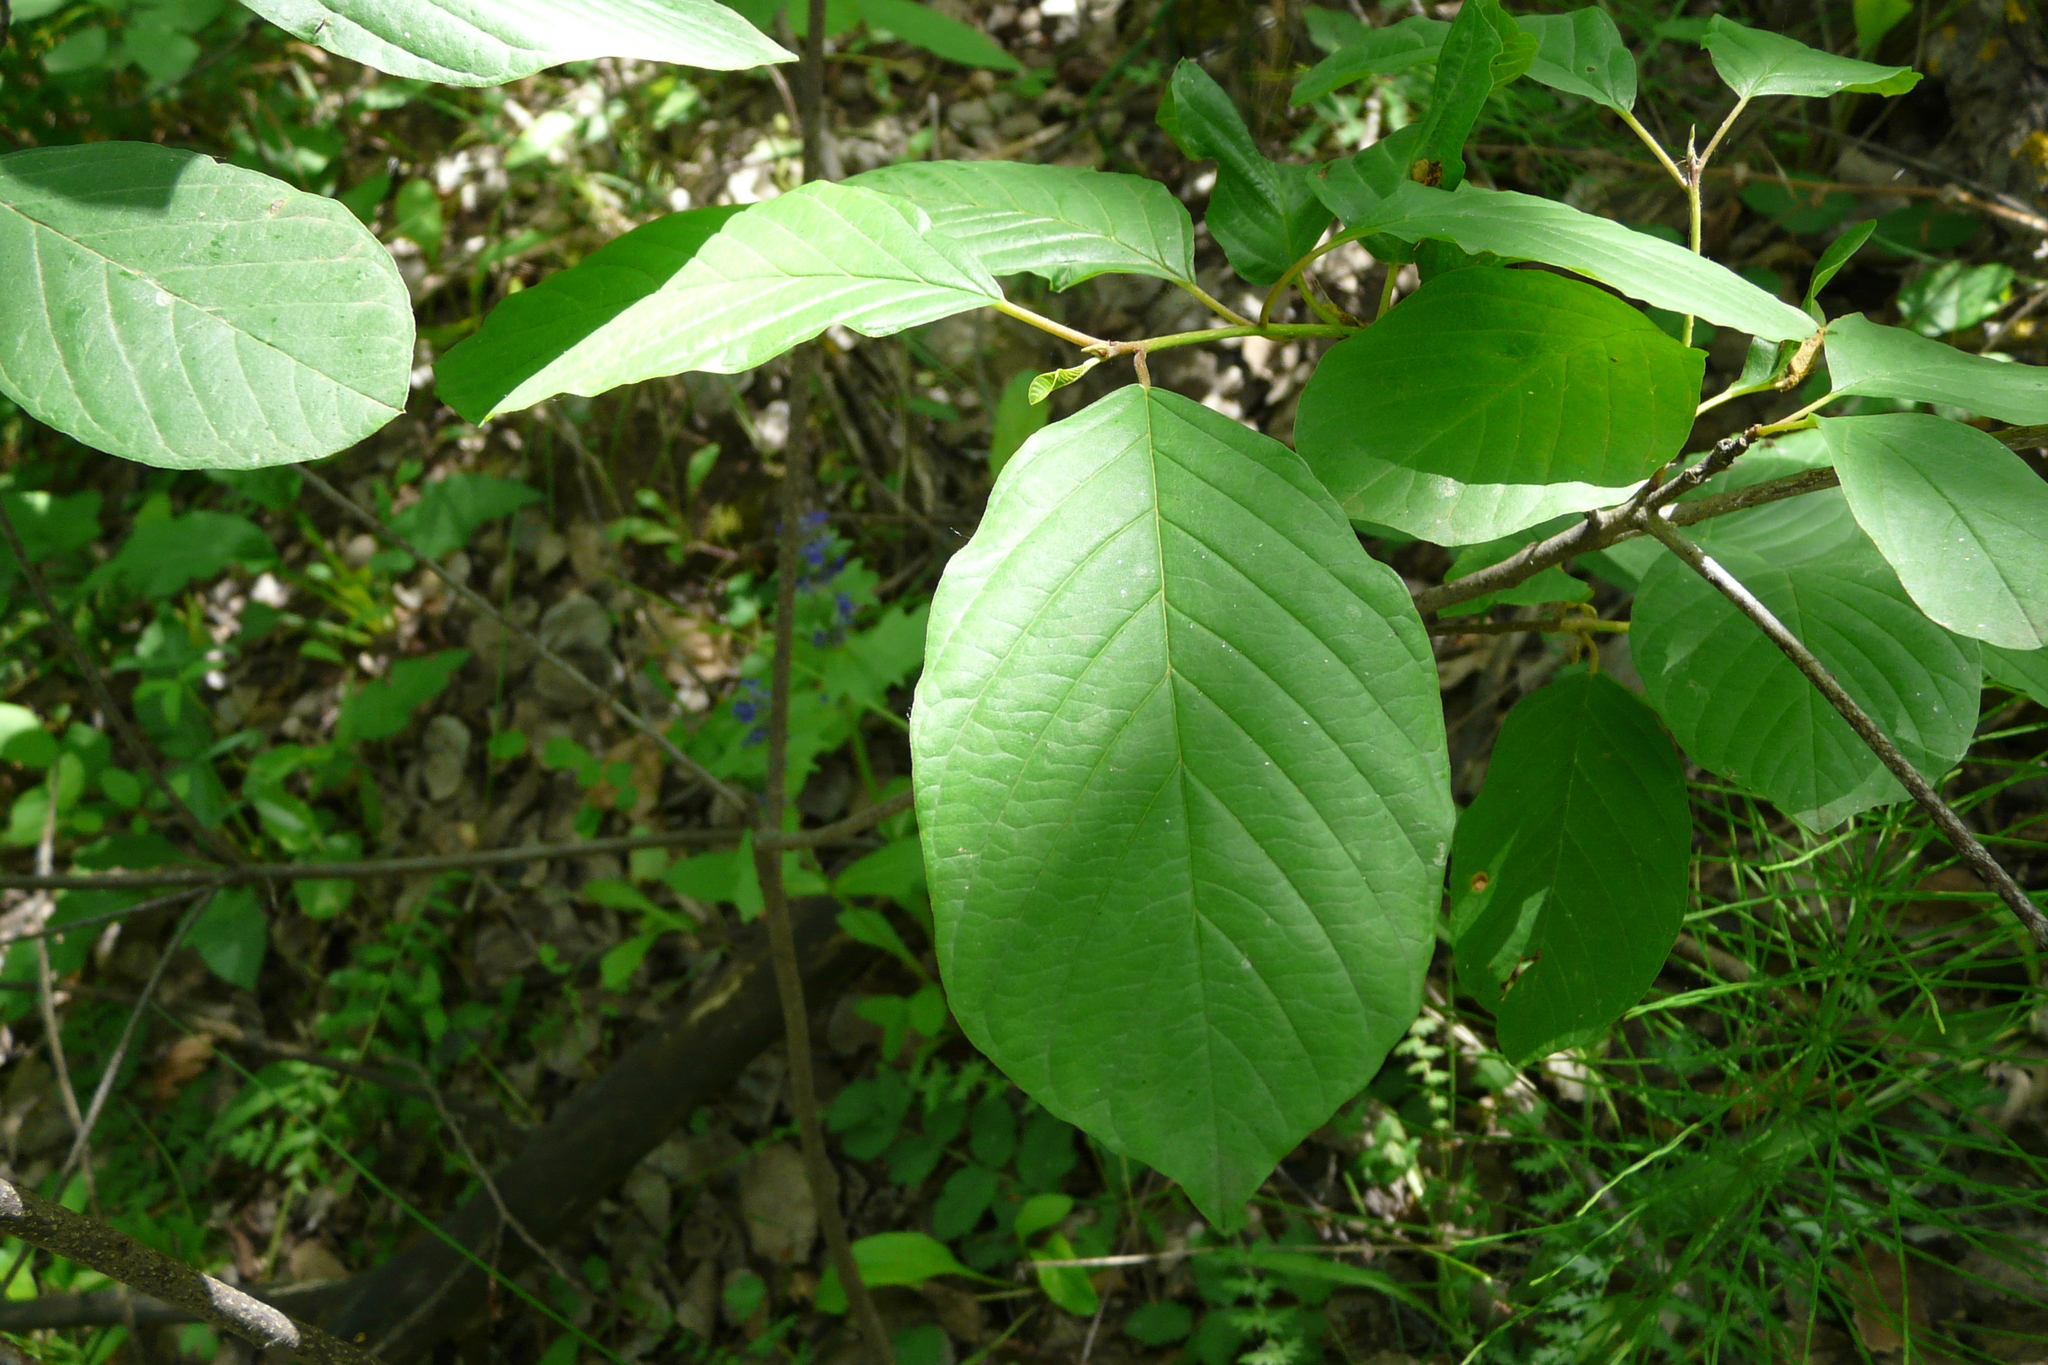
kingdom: Plantae
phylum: Tracheophyta
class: Magnoliopsida
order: Rosales
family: Rhamnaceae
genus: Frangula
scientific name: Frangula alnus
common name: Alder buckthorn
